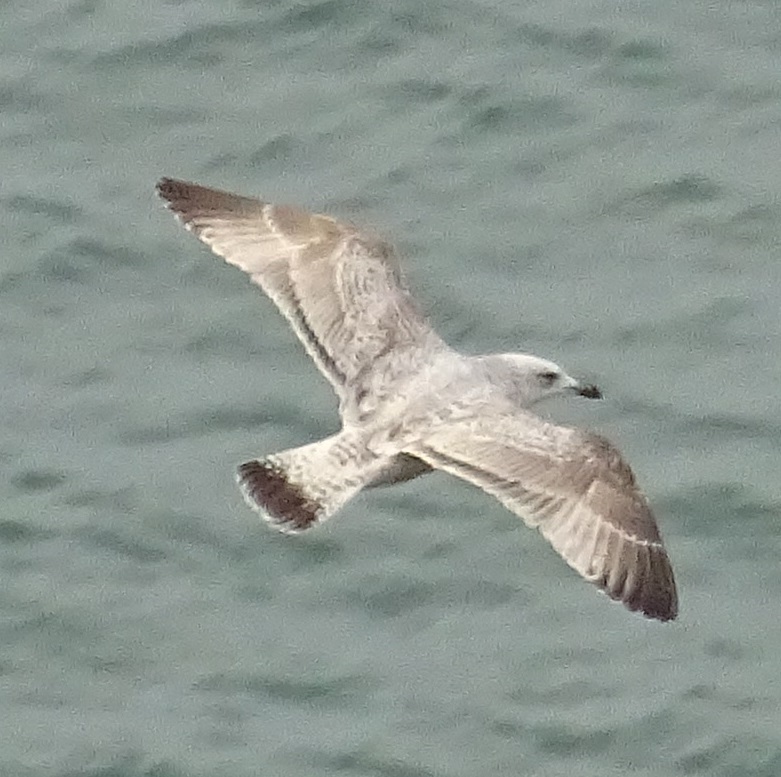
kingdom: Animalia
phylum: Chordata
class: Aves
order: Charadriiformes
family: Laridae
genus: Larus
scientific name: Larus argentatus
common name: Herring gull
